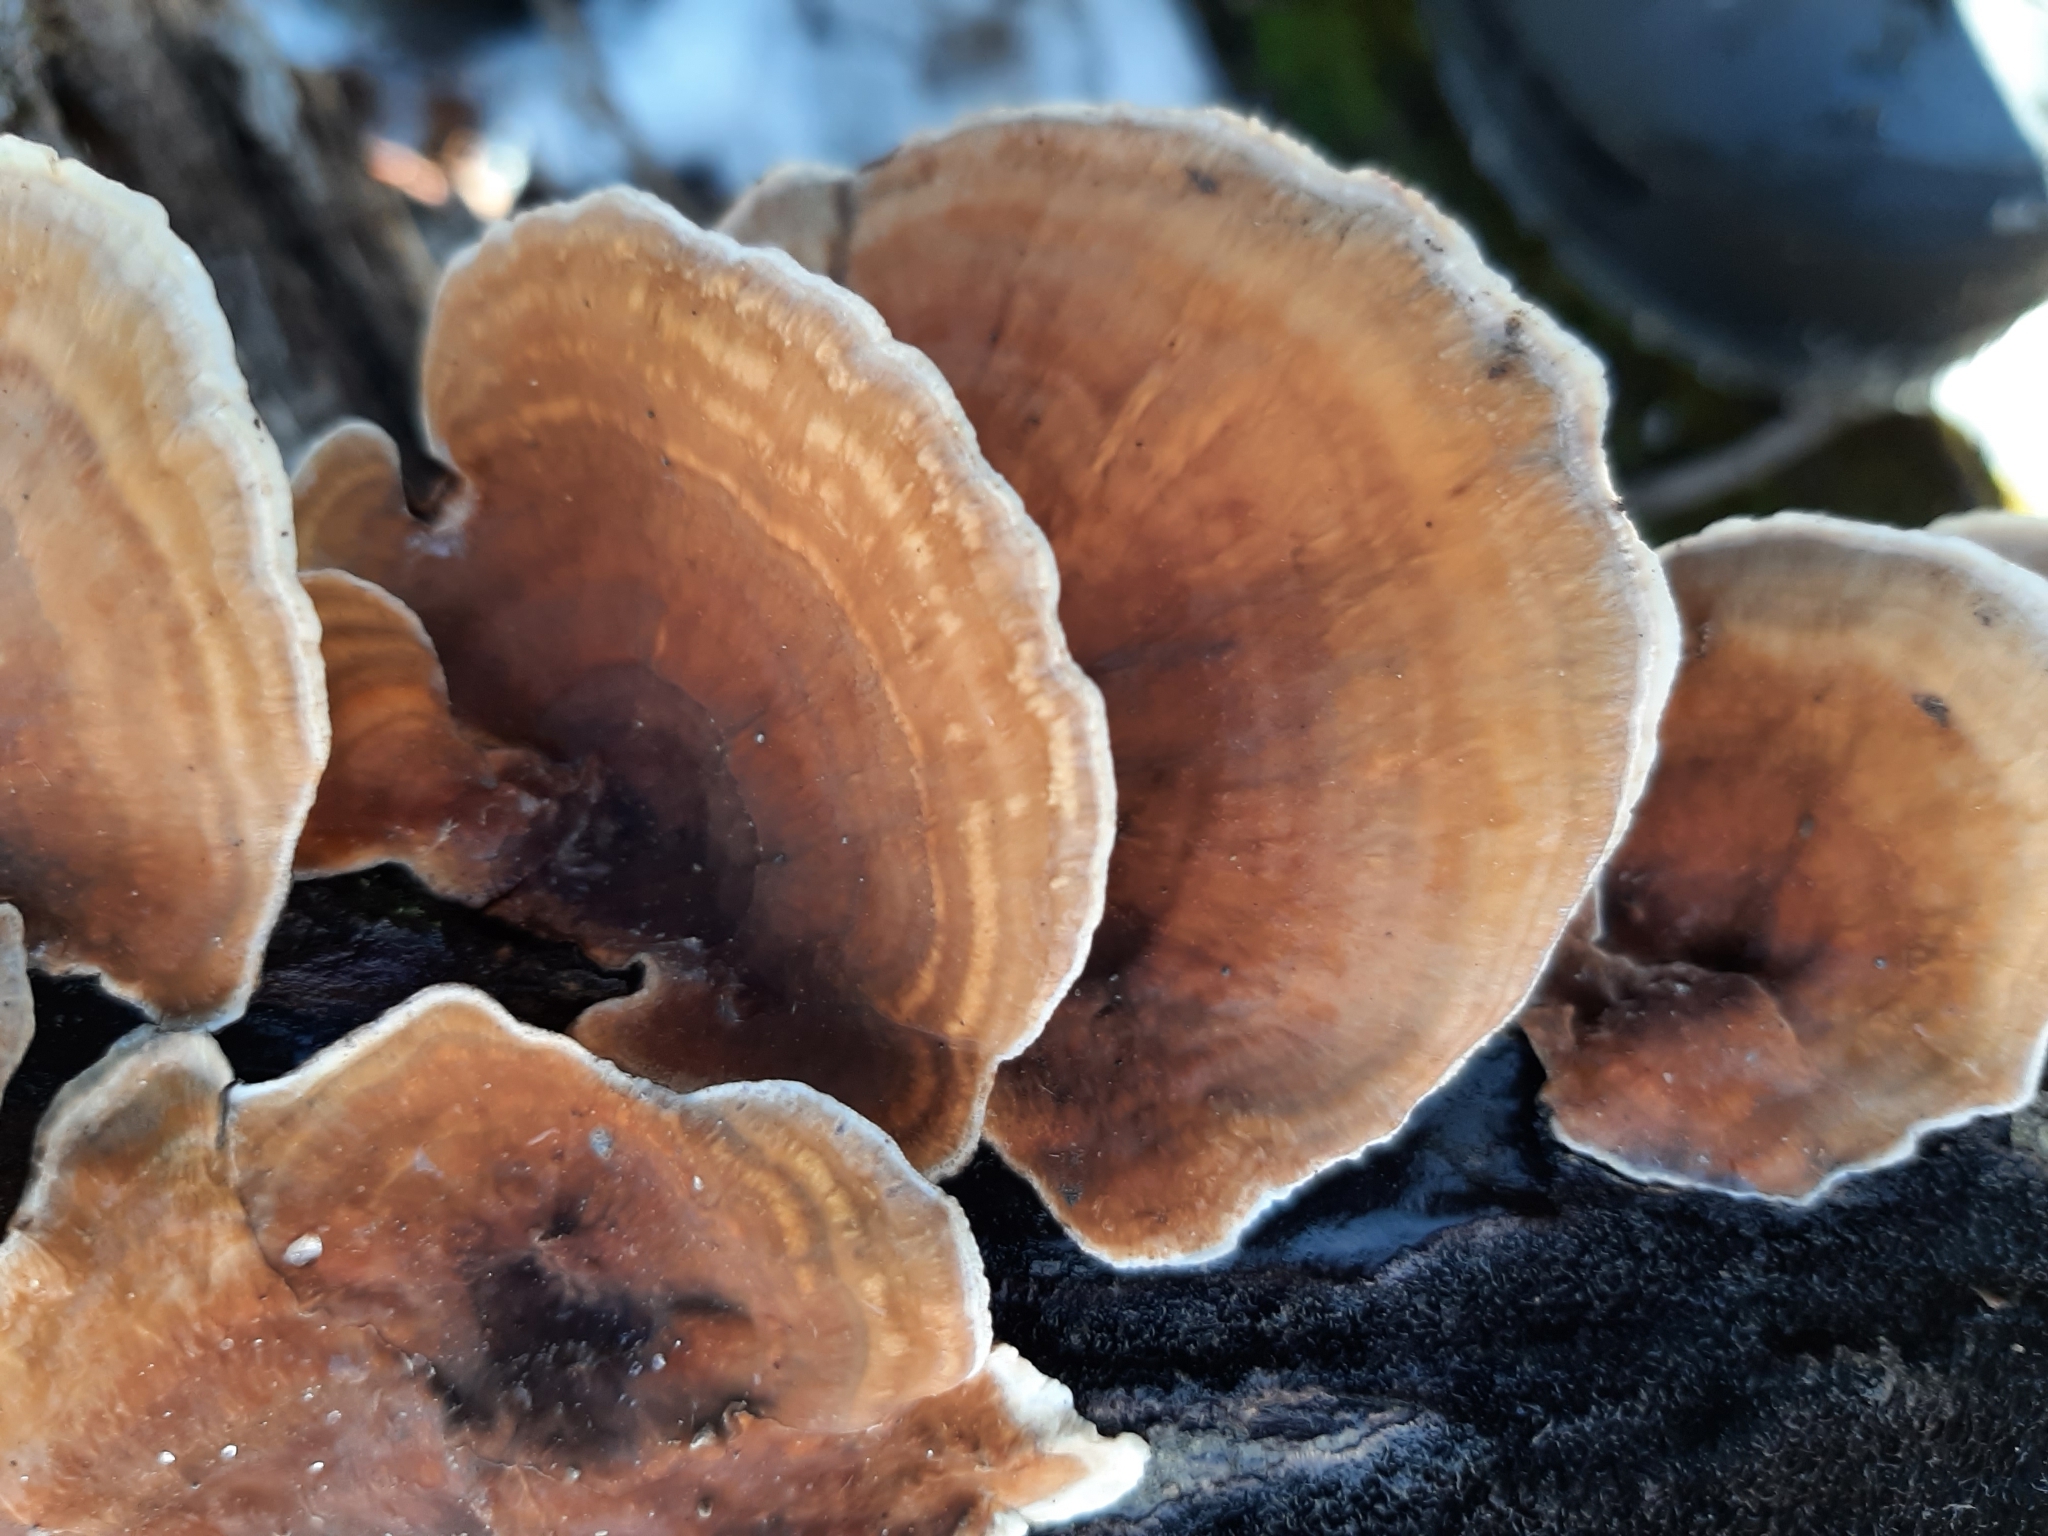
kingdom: Fungi
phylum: Basidiomycota
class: Agaricomycetes
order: Russulales
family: Stereaceae
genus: Stereum
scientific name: Stereum ostrea
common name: False turkeytail
